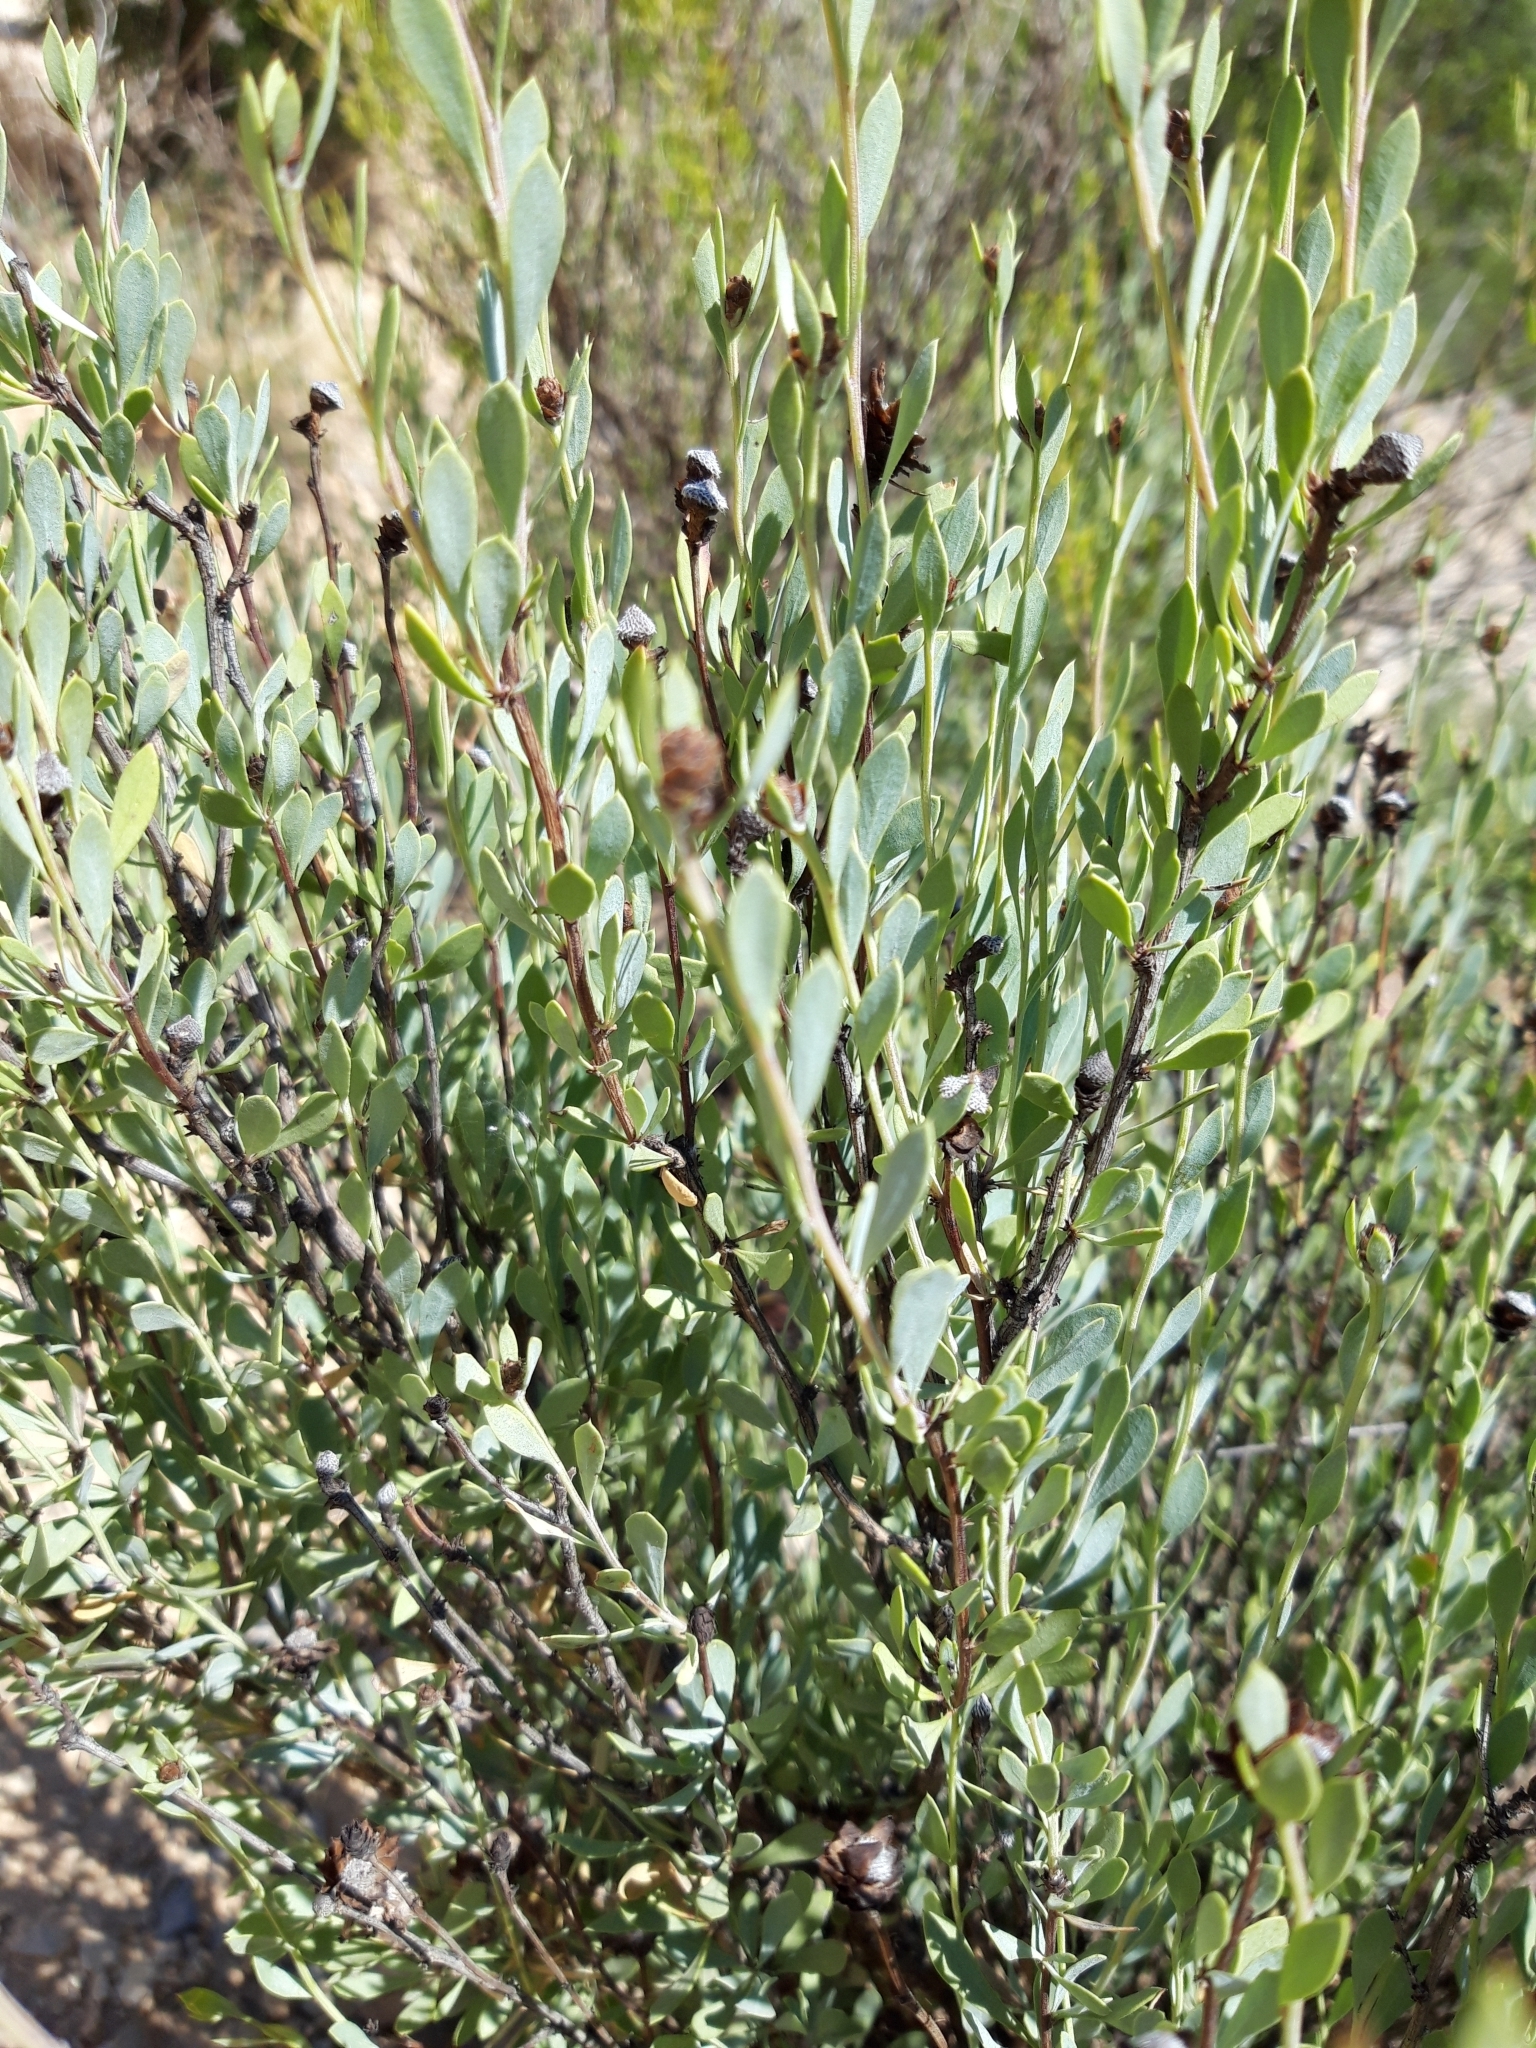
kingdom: Plantae
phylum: Tracheophyta
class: Magnoliopsida
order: Lamiales
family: Plantaginaceae
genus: Globularia
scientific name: Globularia alypum
